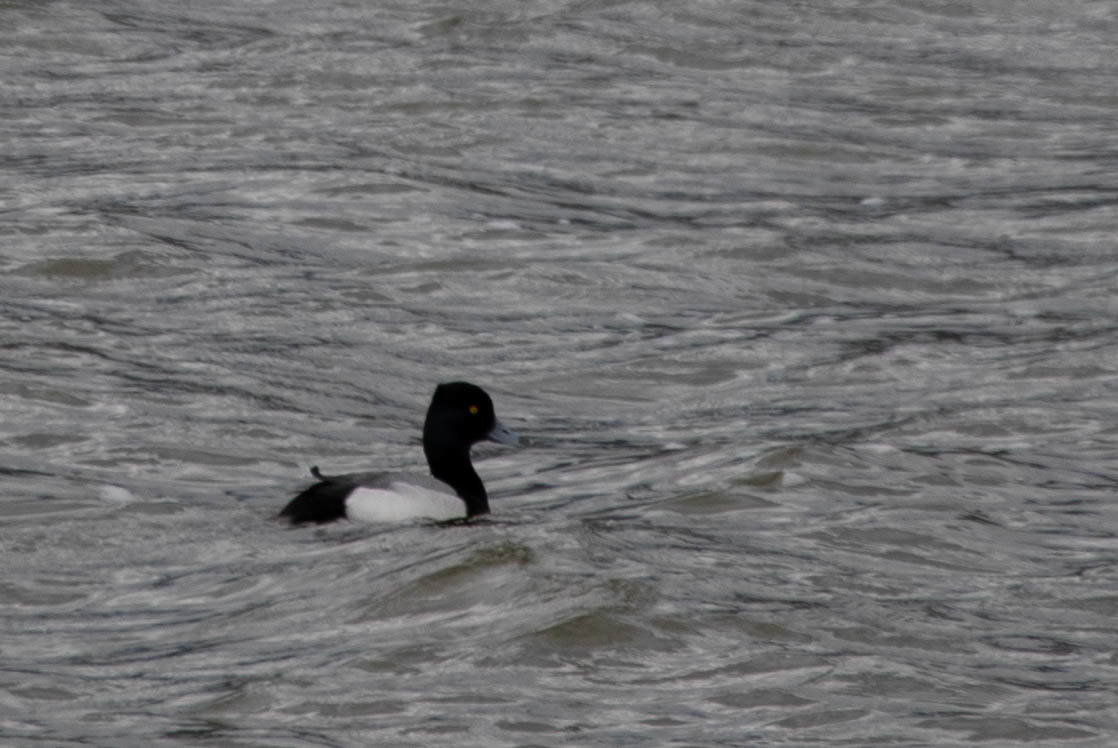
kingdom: Animalia
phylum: Chordata
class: Aves
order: Anseriformes
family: Anatidae
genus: Aythya
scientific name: Aythya affinis
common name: Lesser scaup
